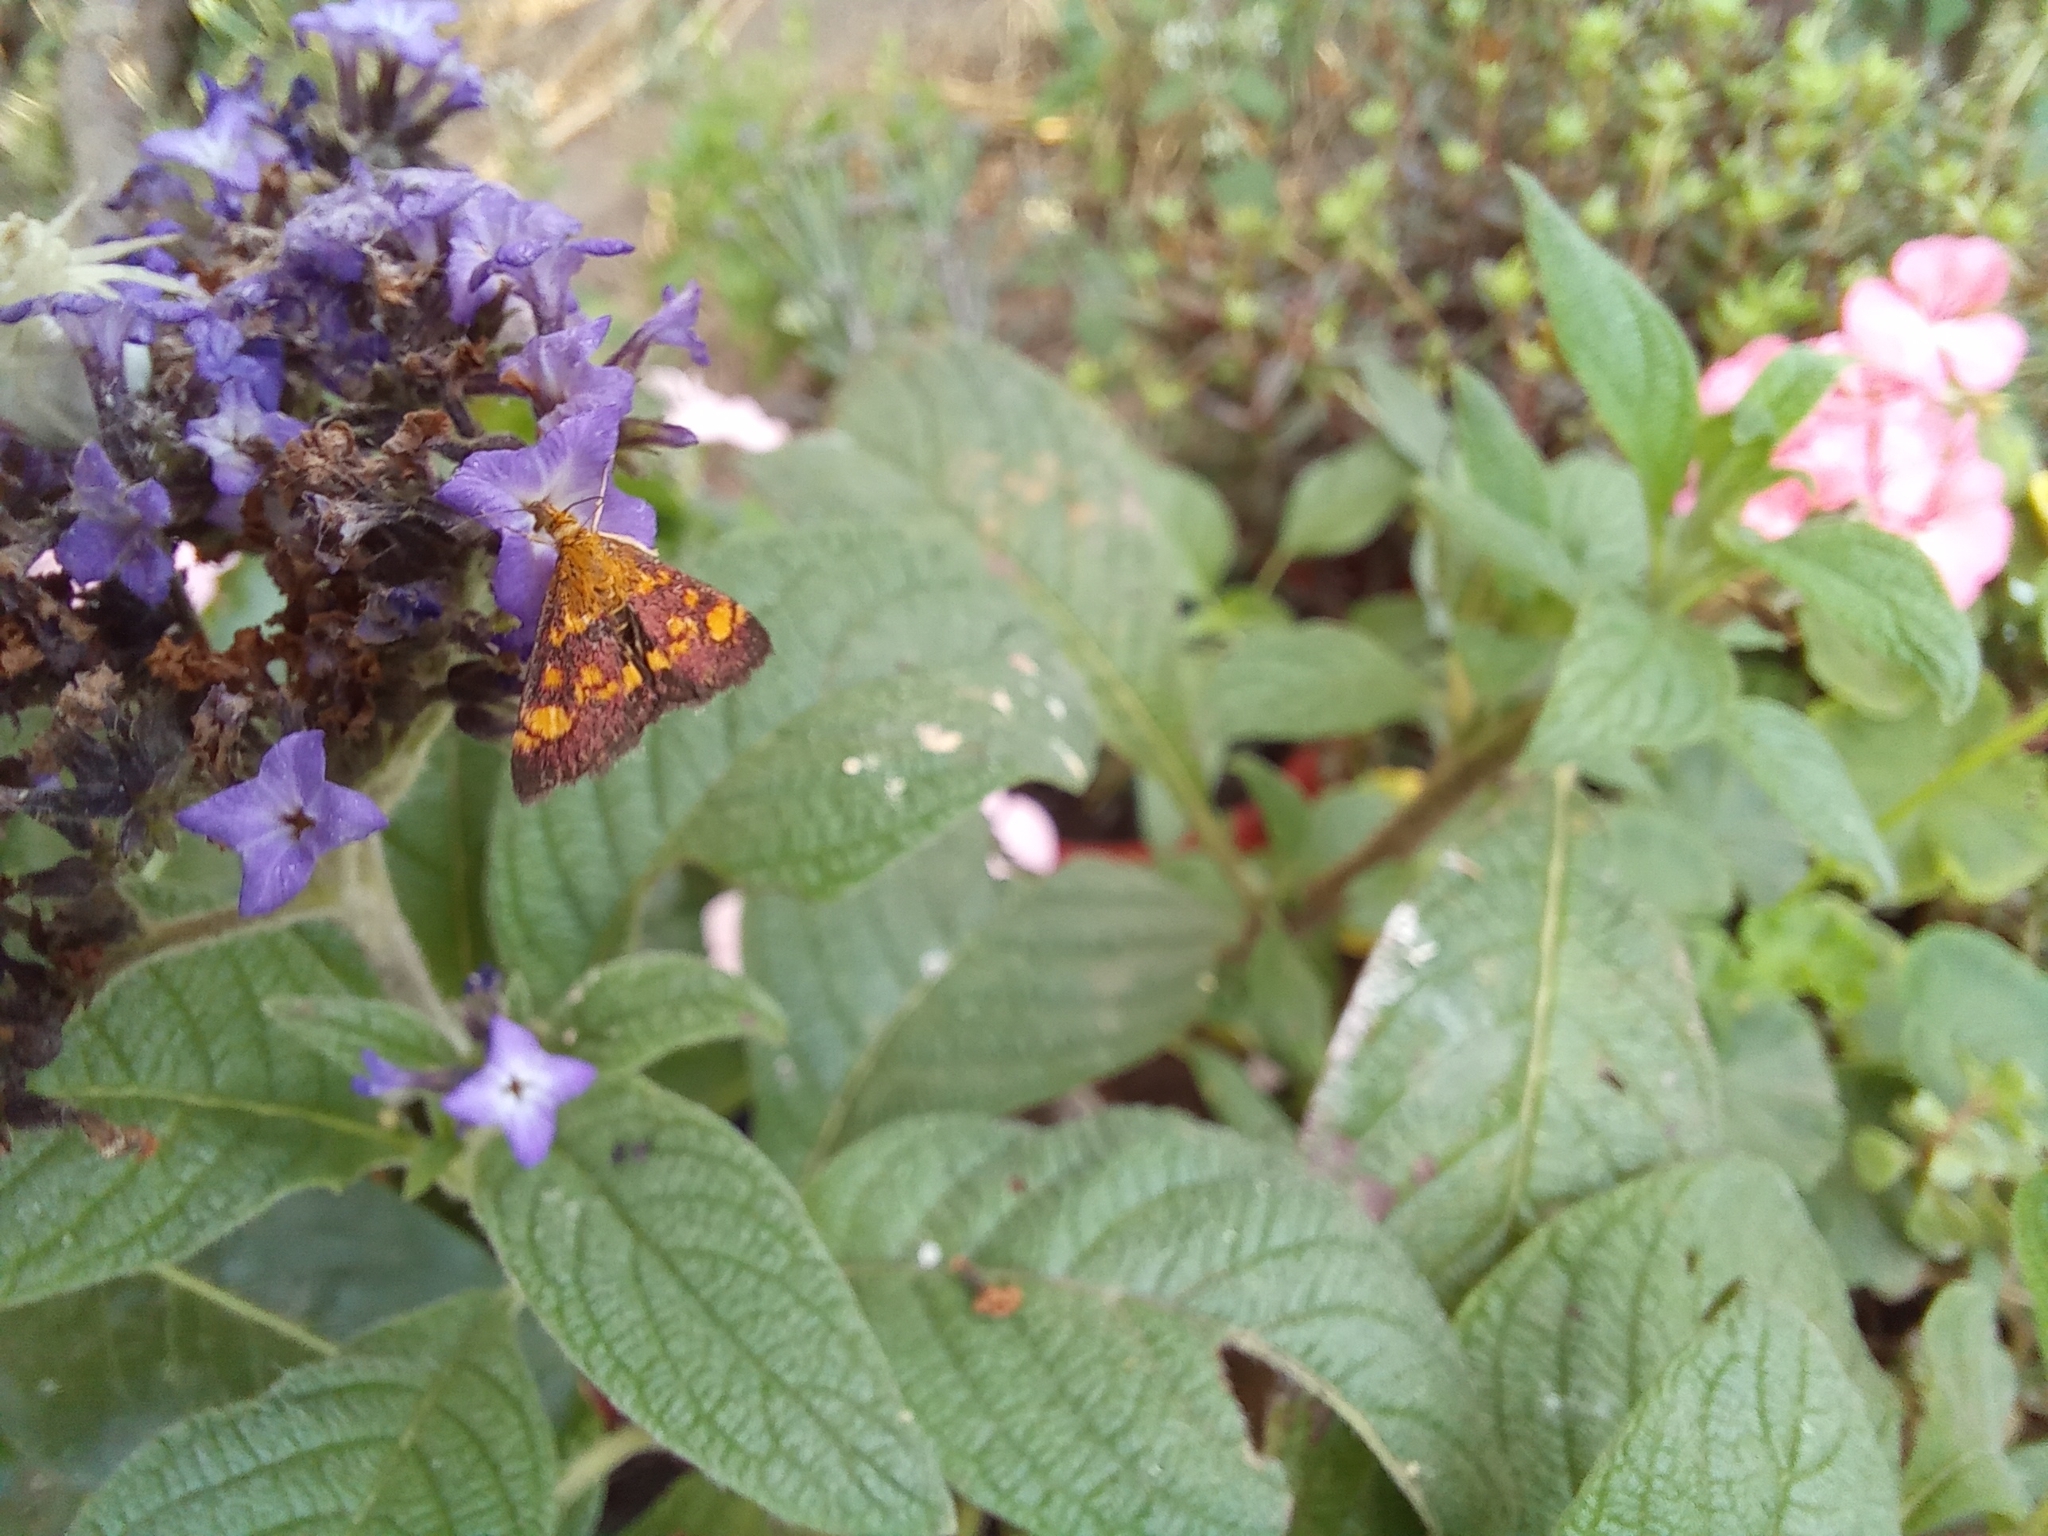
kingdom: Animalia
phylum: Arthropoda
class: Insecta
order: Lepidoptera
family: Crambidae
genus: Pyrausta
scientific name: Pyrausta aurata
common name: Small purple & gold
